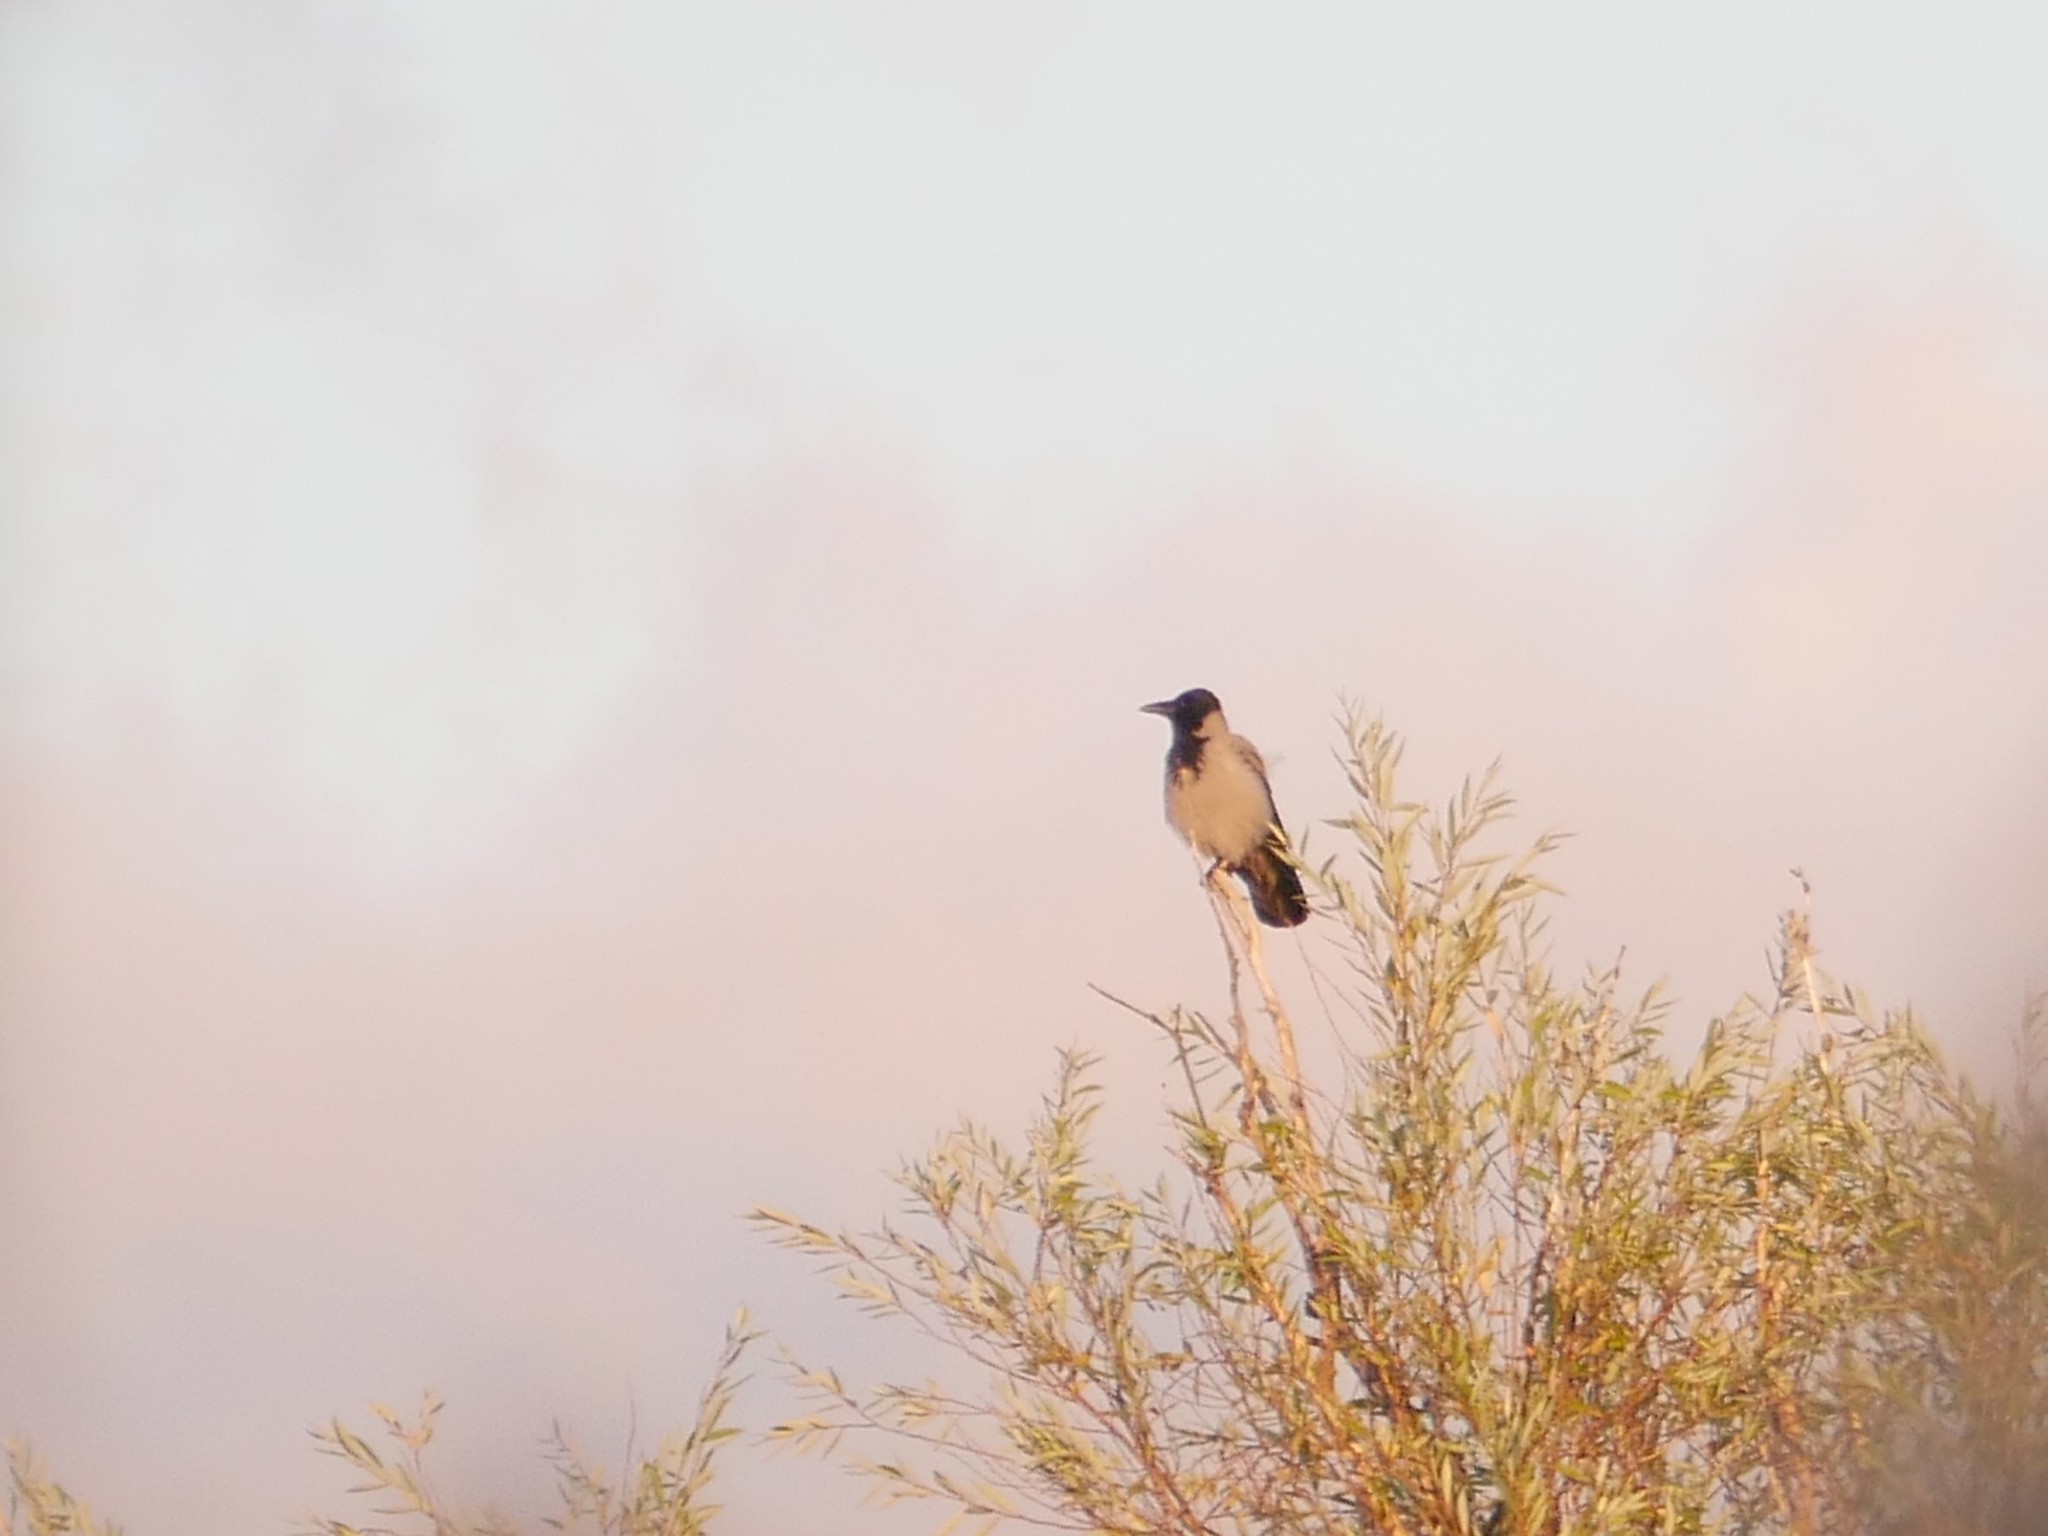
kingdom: Animalia
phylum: Chordata
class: Aves
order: Passeriformes
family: Corvidae
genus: Corvus
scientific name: Corvus cornix
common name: Hooded crow
